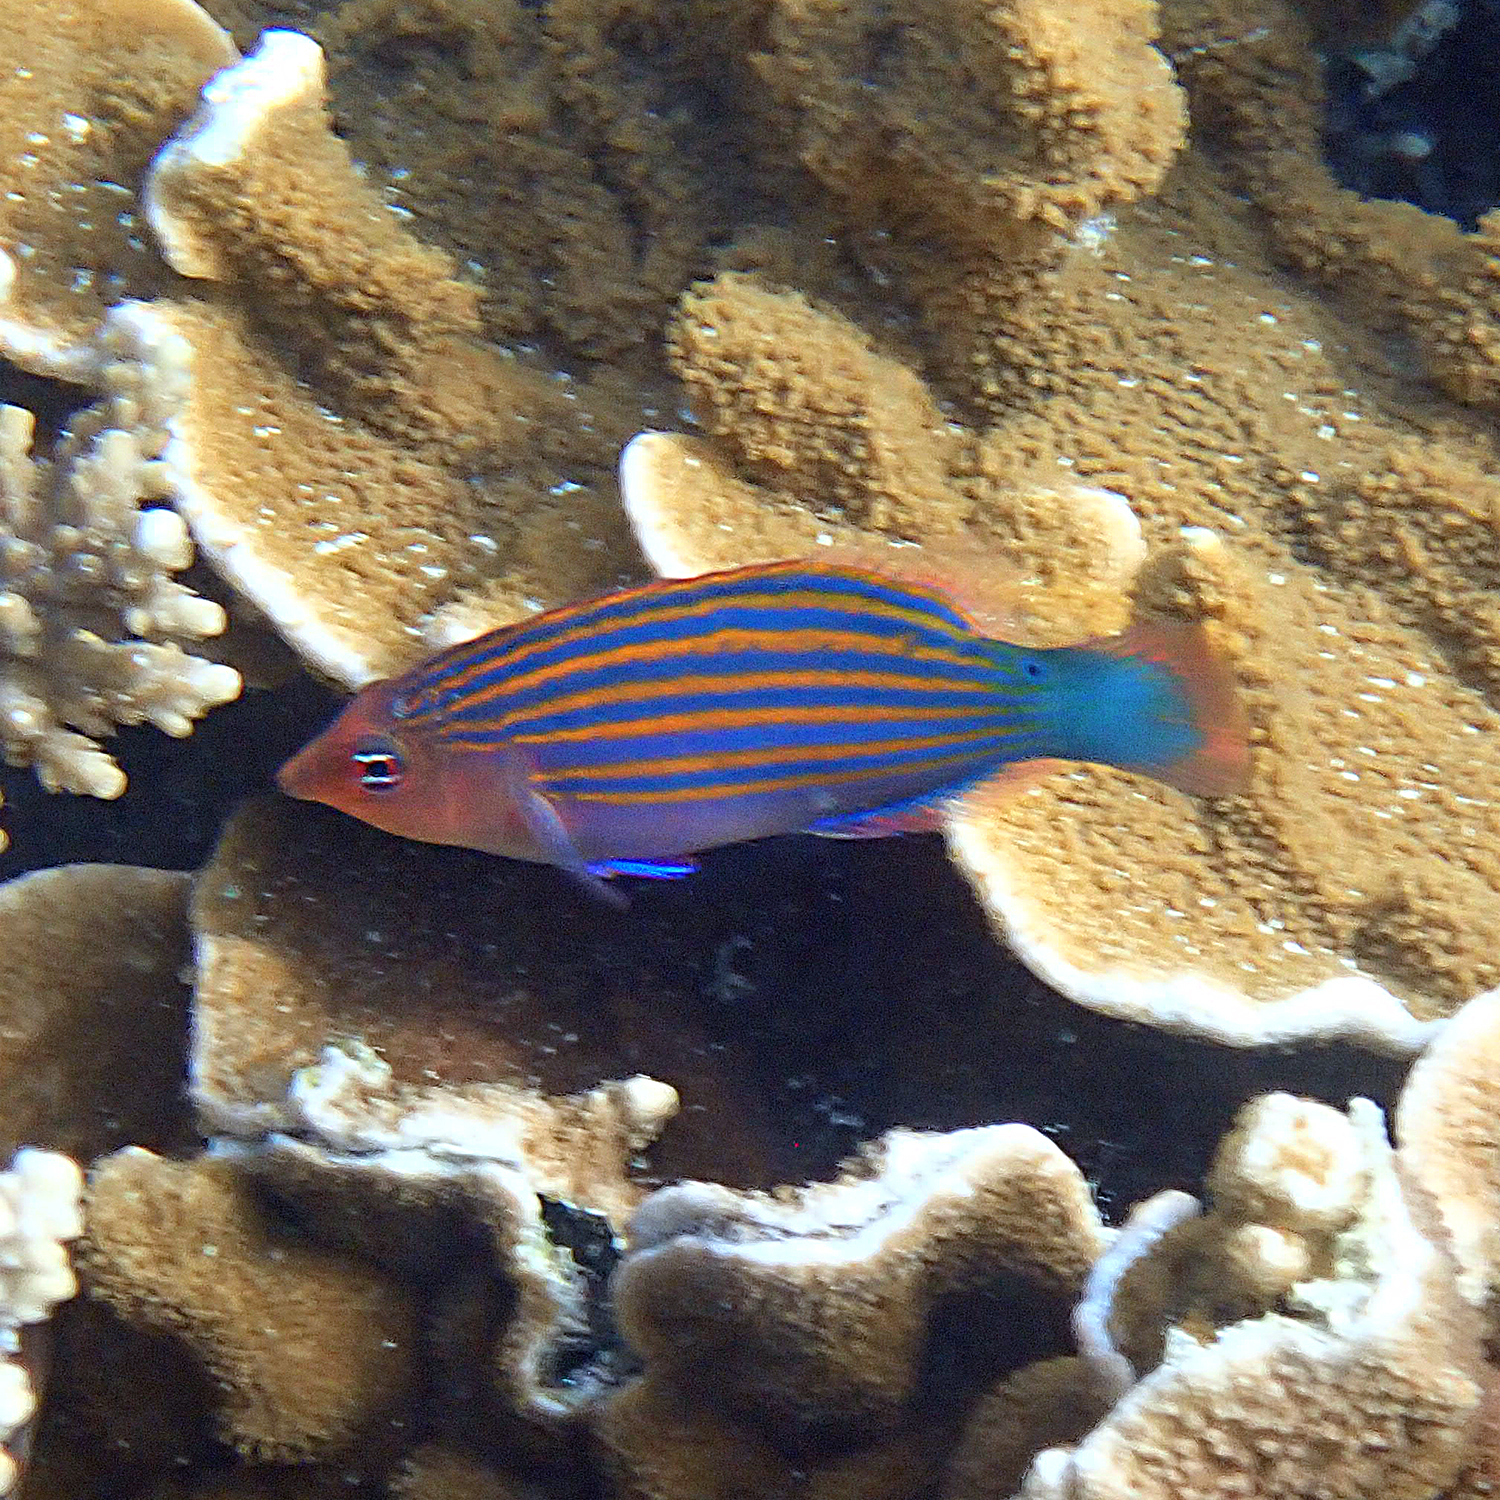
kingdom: Animalia
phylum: Chordata
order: Perciformes
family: Labridae
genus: Pseudocheilinus
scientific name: Pseudocheilinus hexataenia
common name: Sixline wrasse
